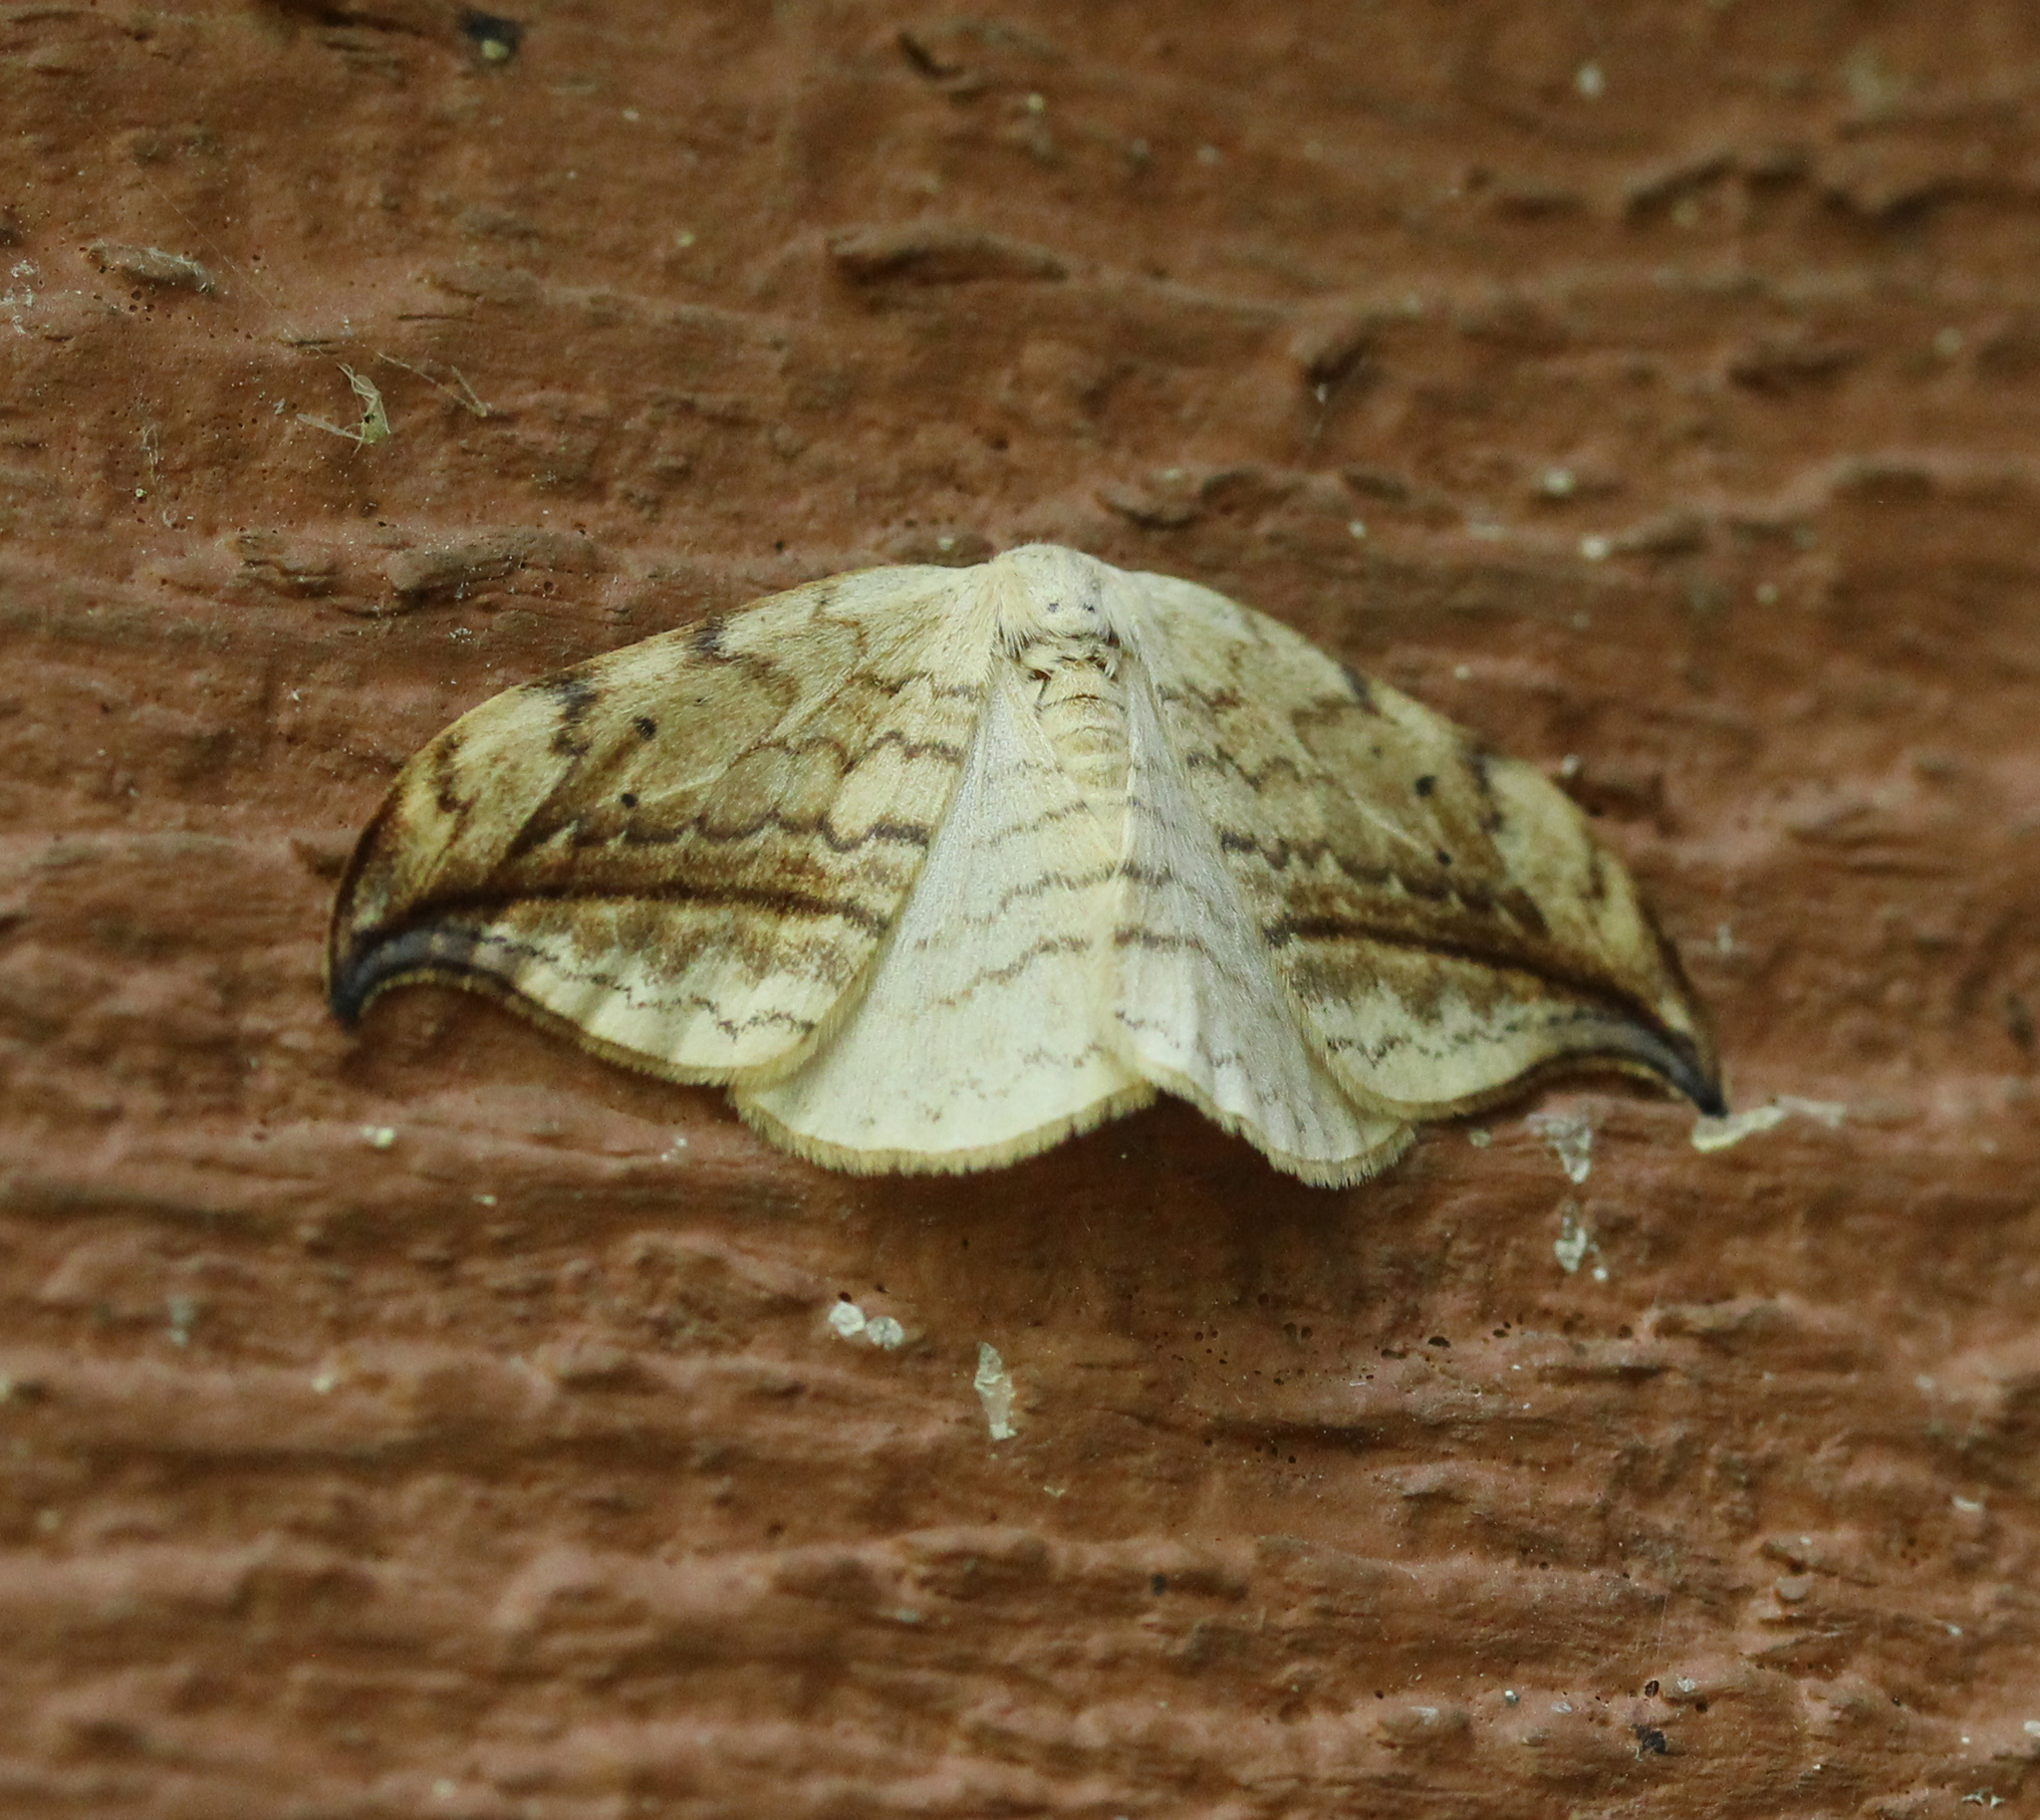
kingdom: Animalia
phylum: Arthropoda
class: Insecta
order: Lepidoptera
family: Drepanidae
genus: Drepana
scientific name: Drepana arcuata
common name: Arched hooktip moth
